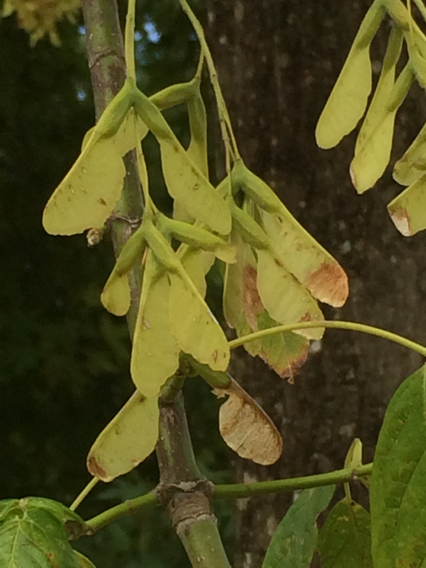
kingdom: Plantae
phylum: Tracheophyta
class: Magnoliopsida
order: Sapindales
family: Sapindaceae
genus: Acer
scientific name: Acer negundo
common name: Ashleaf maple
